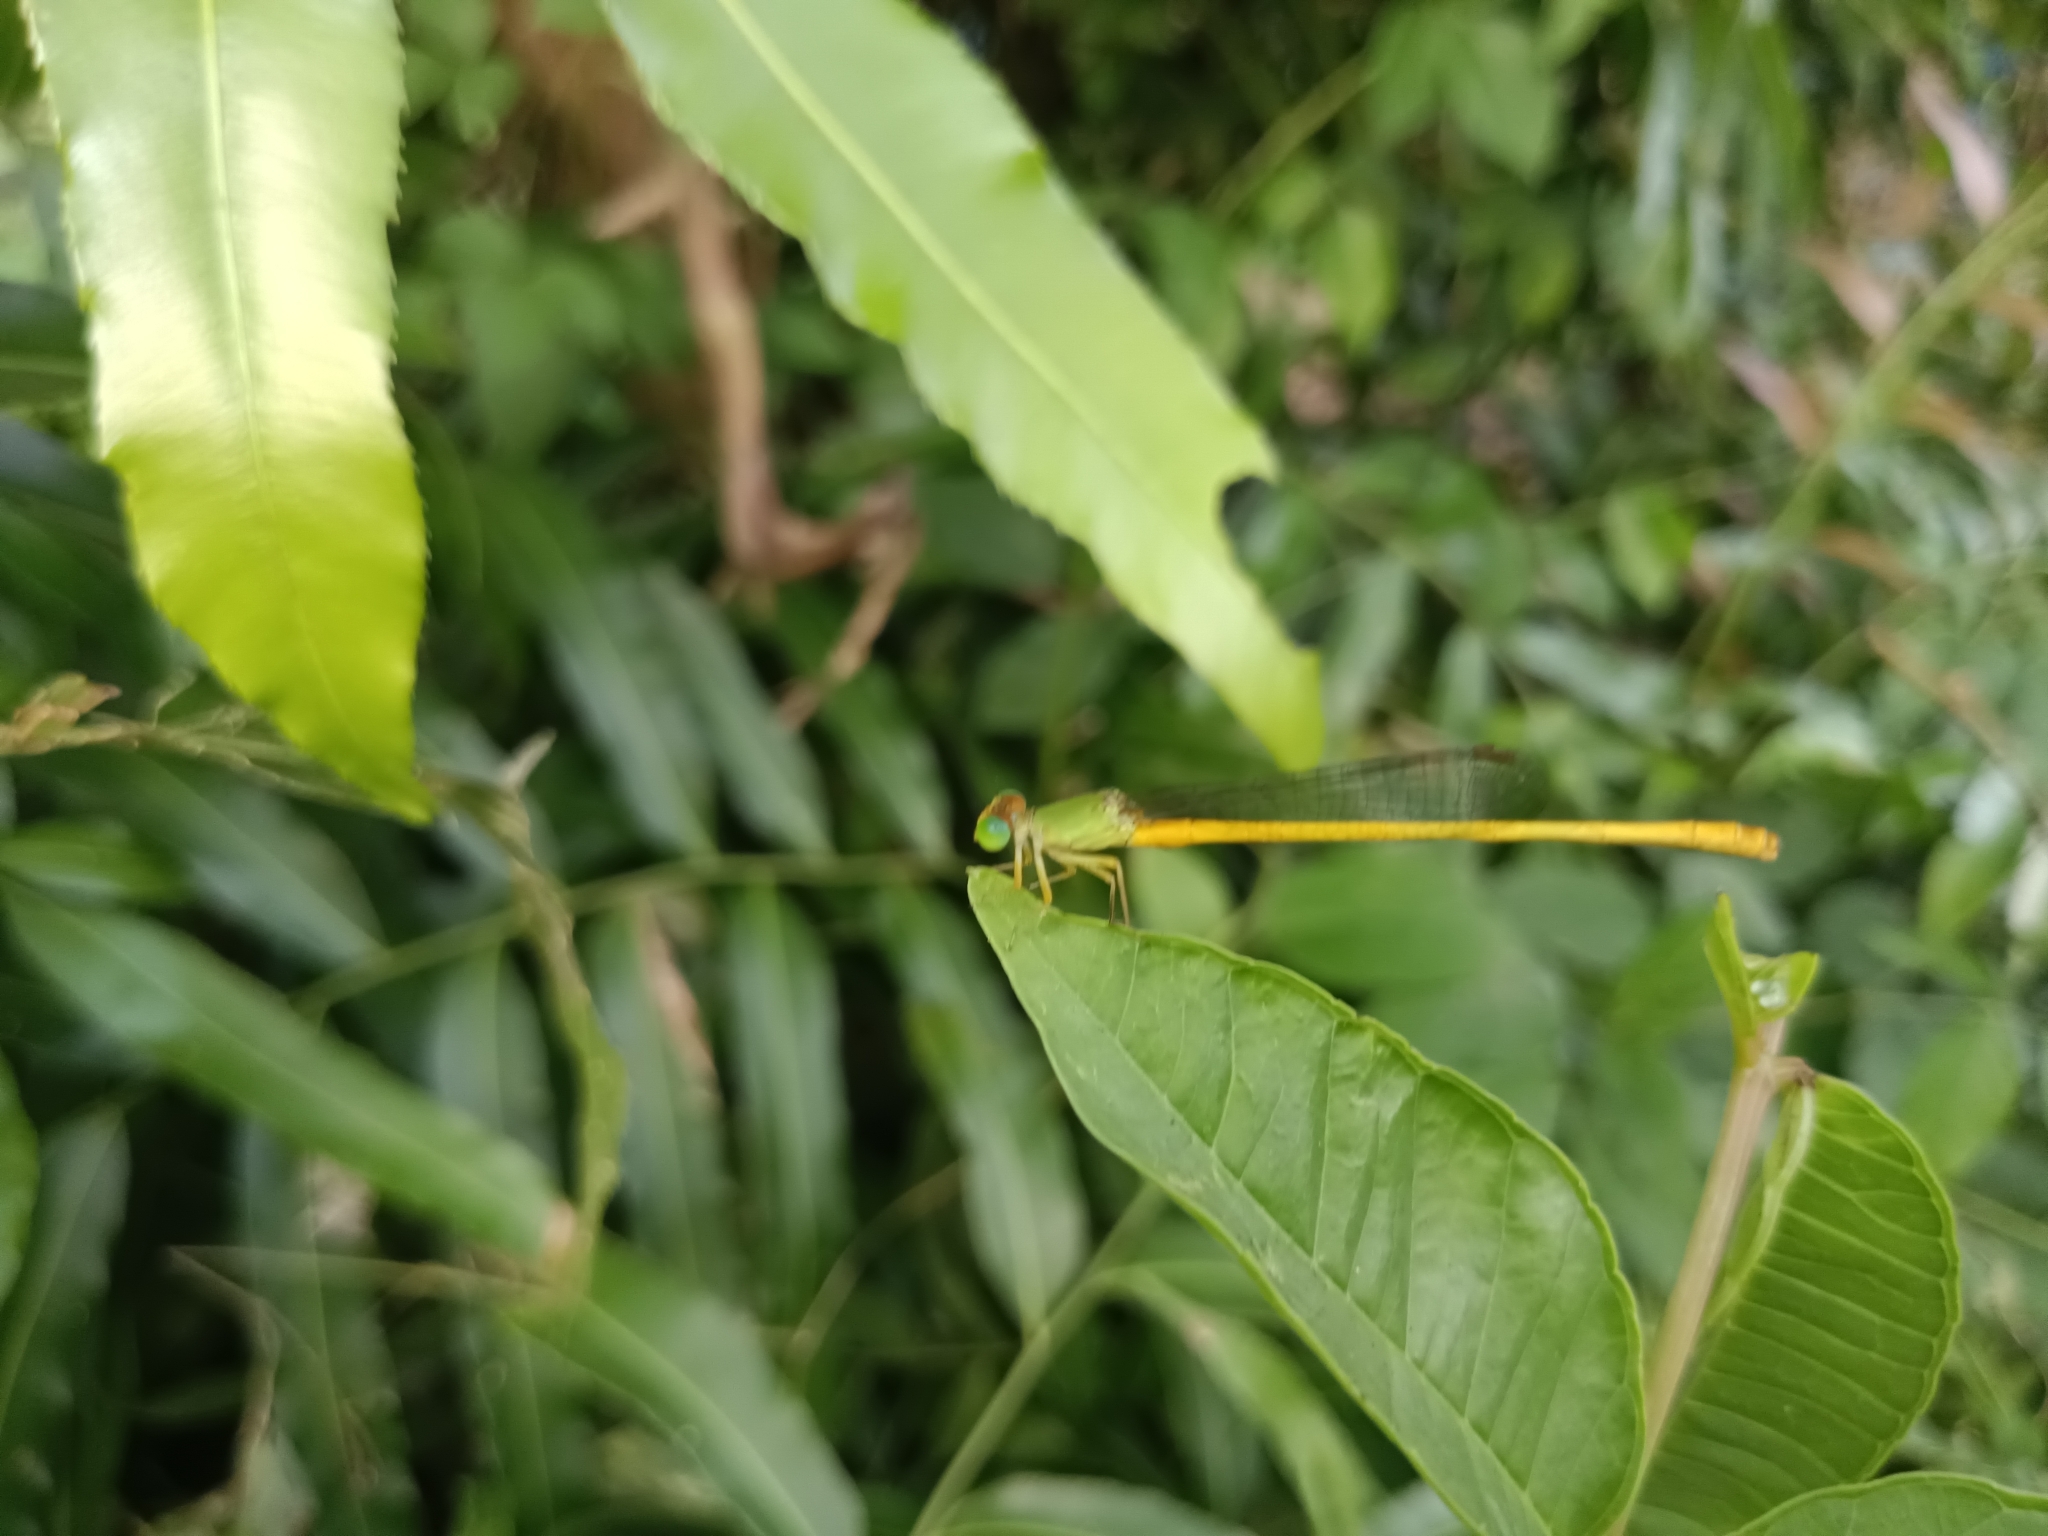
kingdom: Animalia
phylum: Arthropoda
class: Insecta
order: Odonata
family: Coenagrionidae
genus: Ceriagrion
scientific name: Ceriagrion coromandelianum
